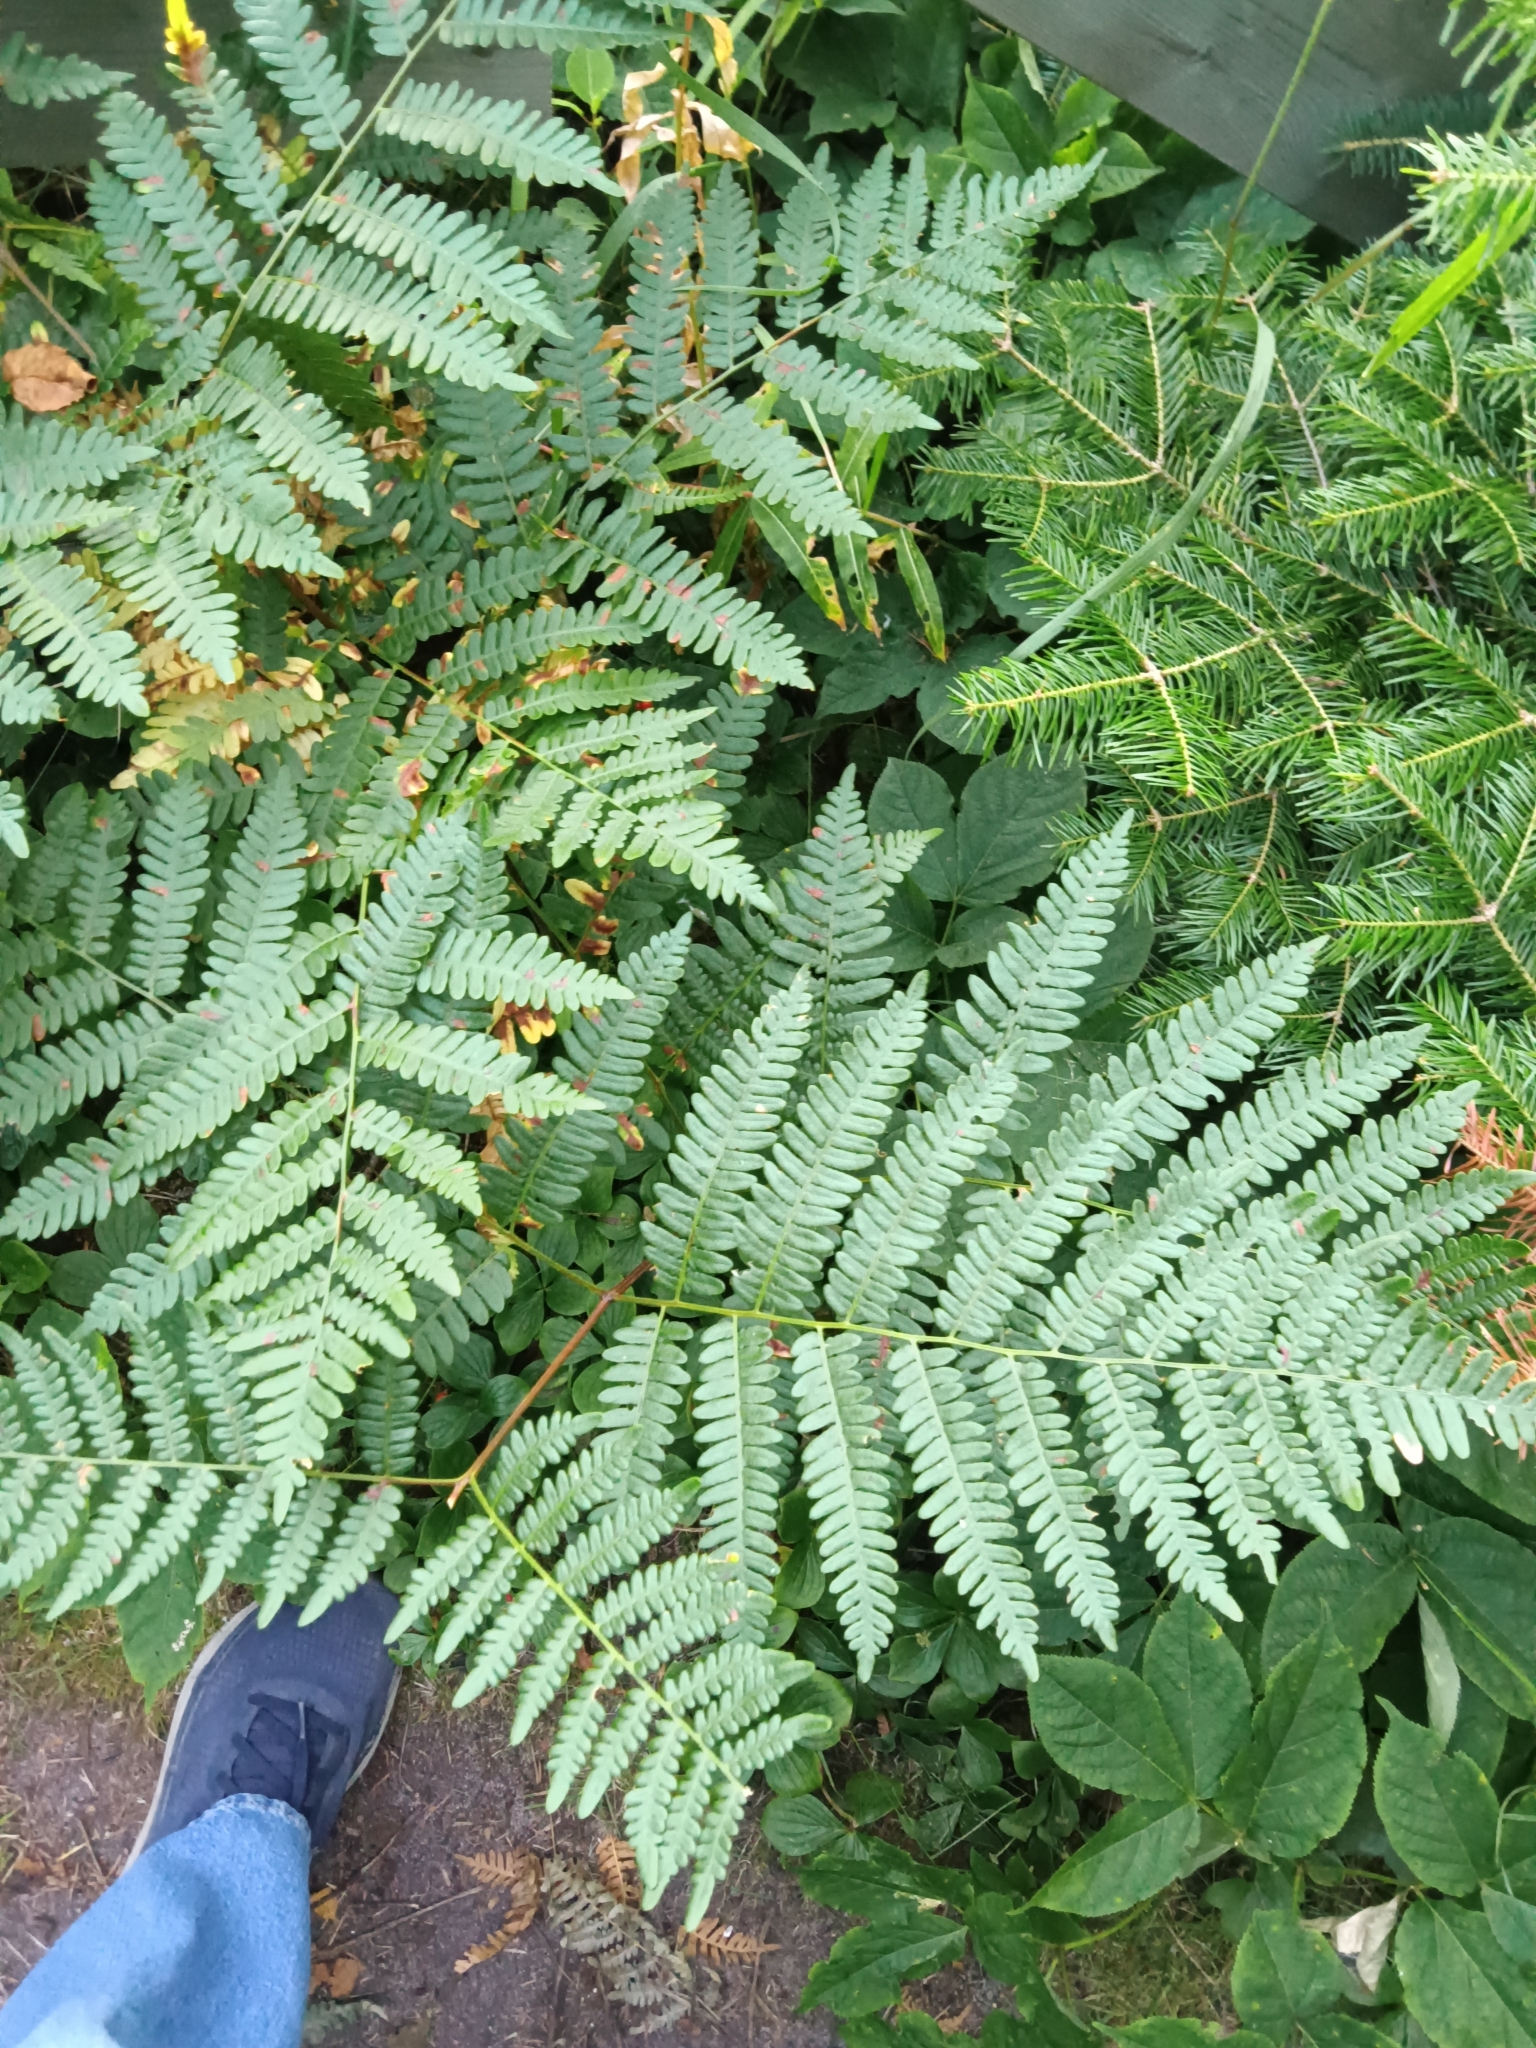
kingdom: Plantae
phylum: Tracheophyta
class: Polypodiopsida
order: Polypodiales
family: Dennstaedtiaceae
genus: Pteridium
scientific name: Pteridium aquilinum
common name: Bracken
